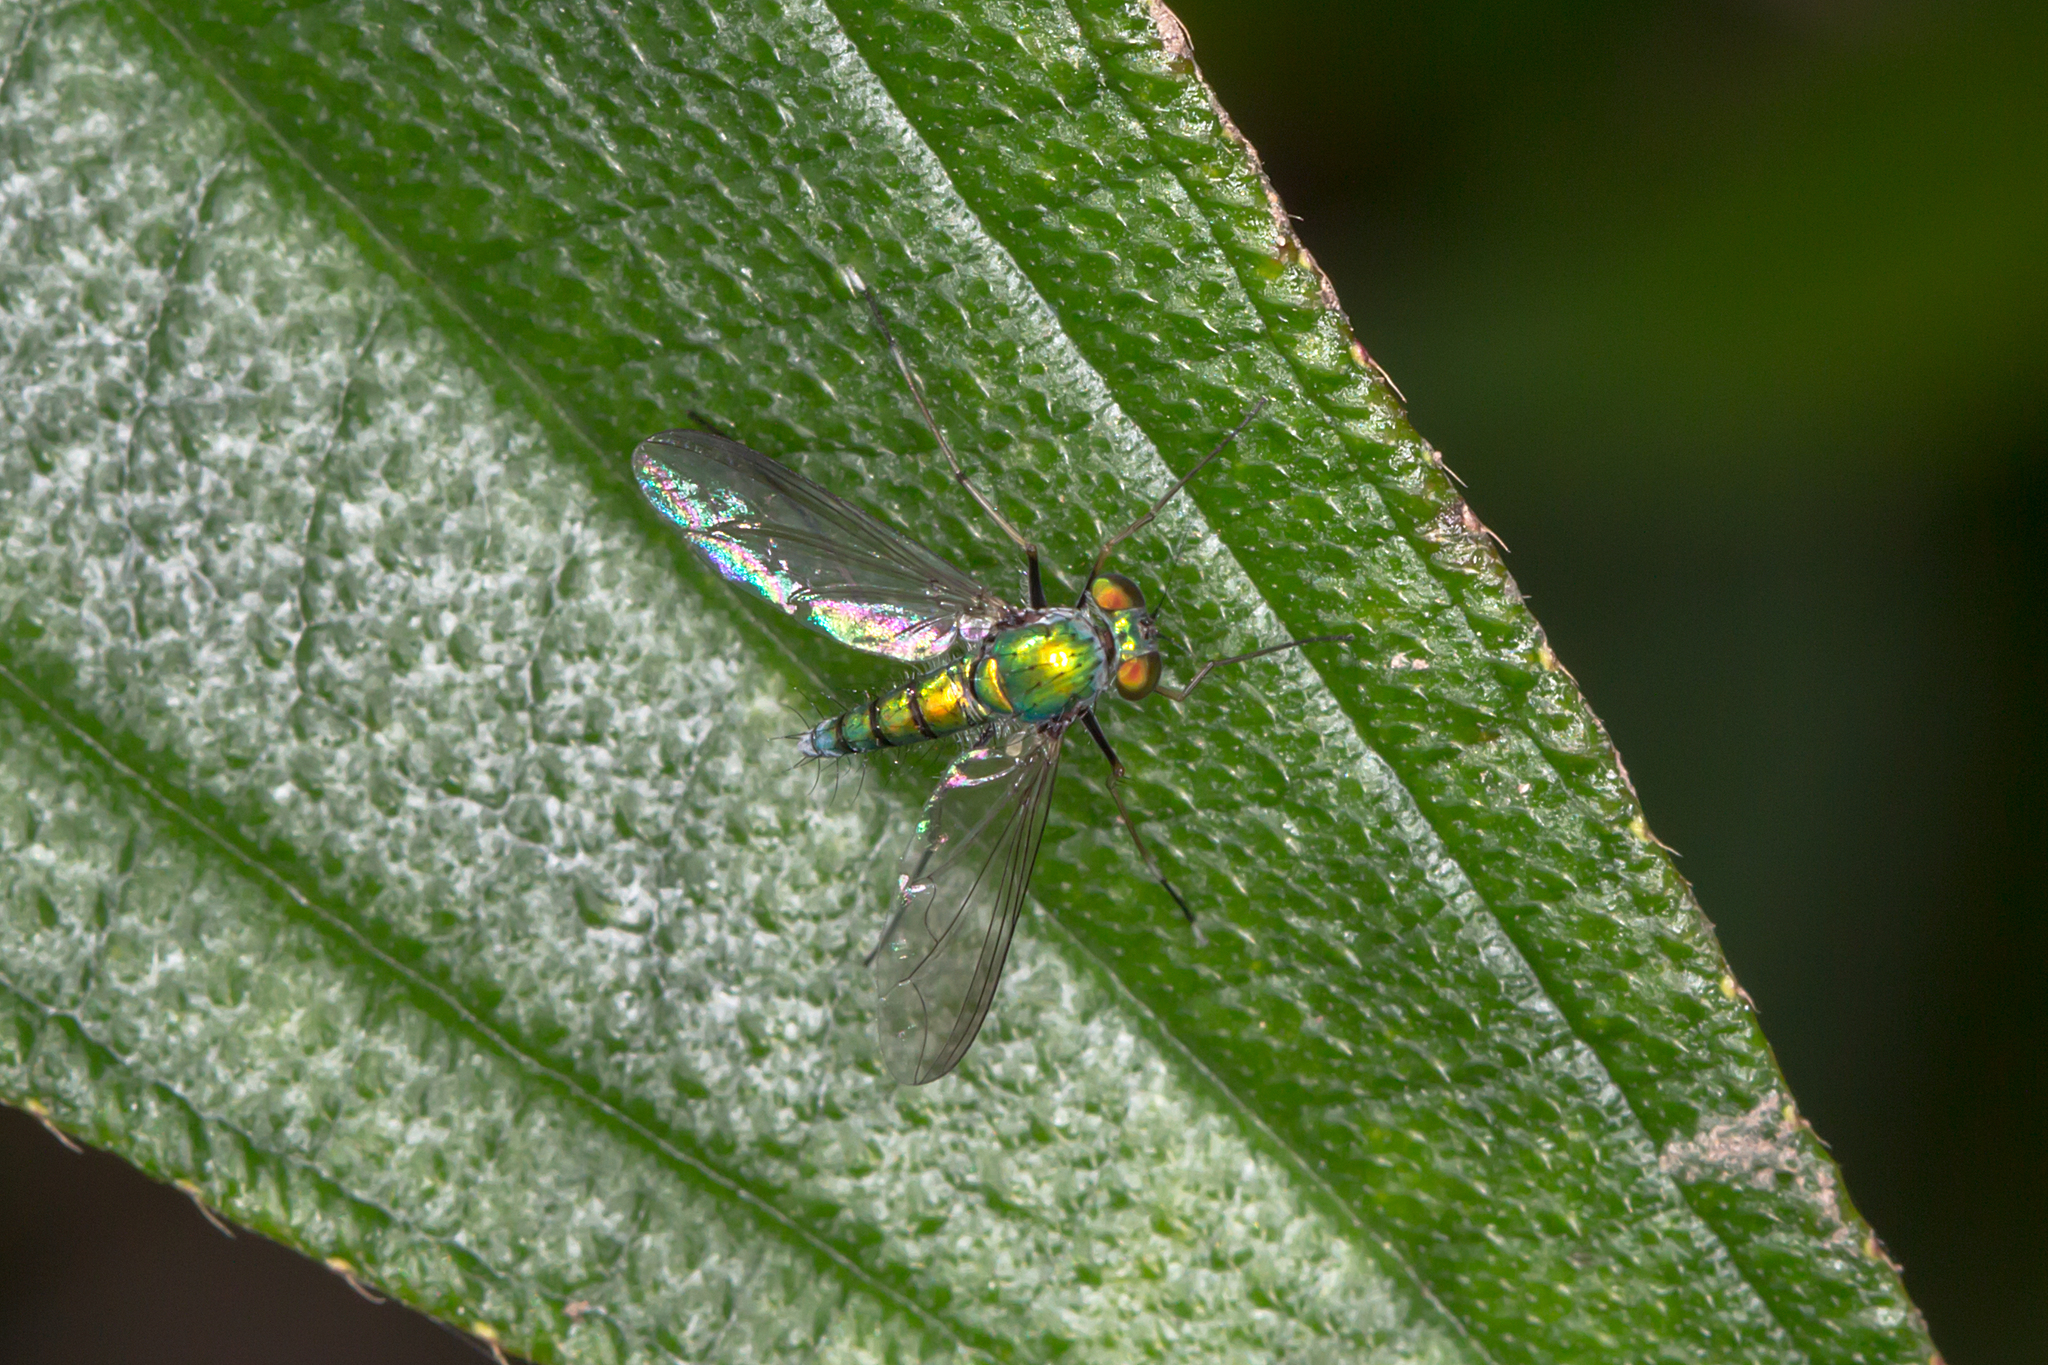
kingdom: Animalia
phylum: Arthropoda
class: Insecta
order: Diptera
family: Dolichopodidae
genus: Chrysosoma
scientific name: Chrysosoma leucopogon
